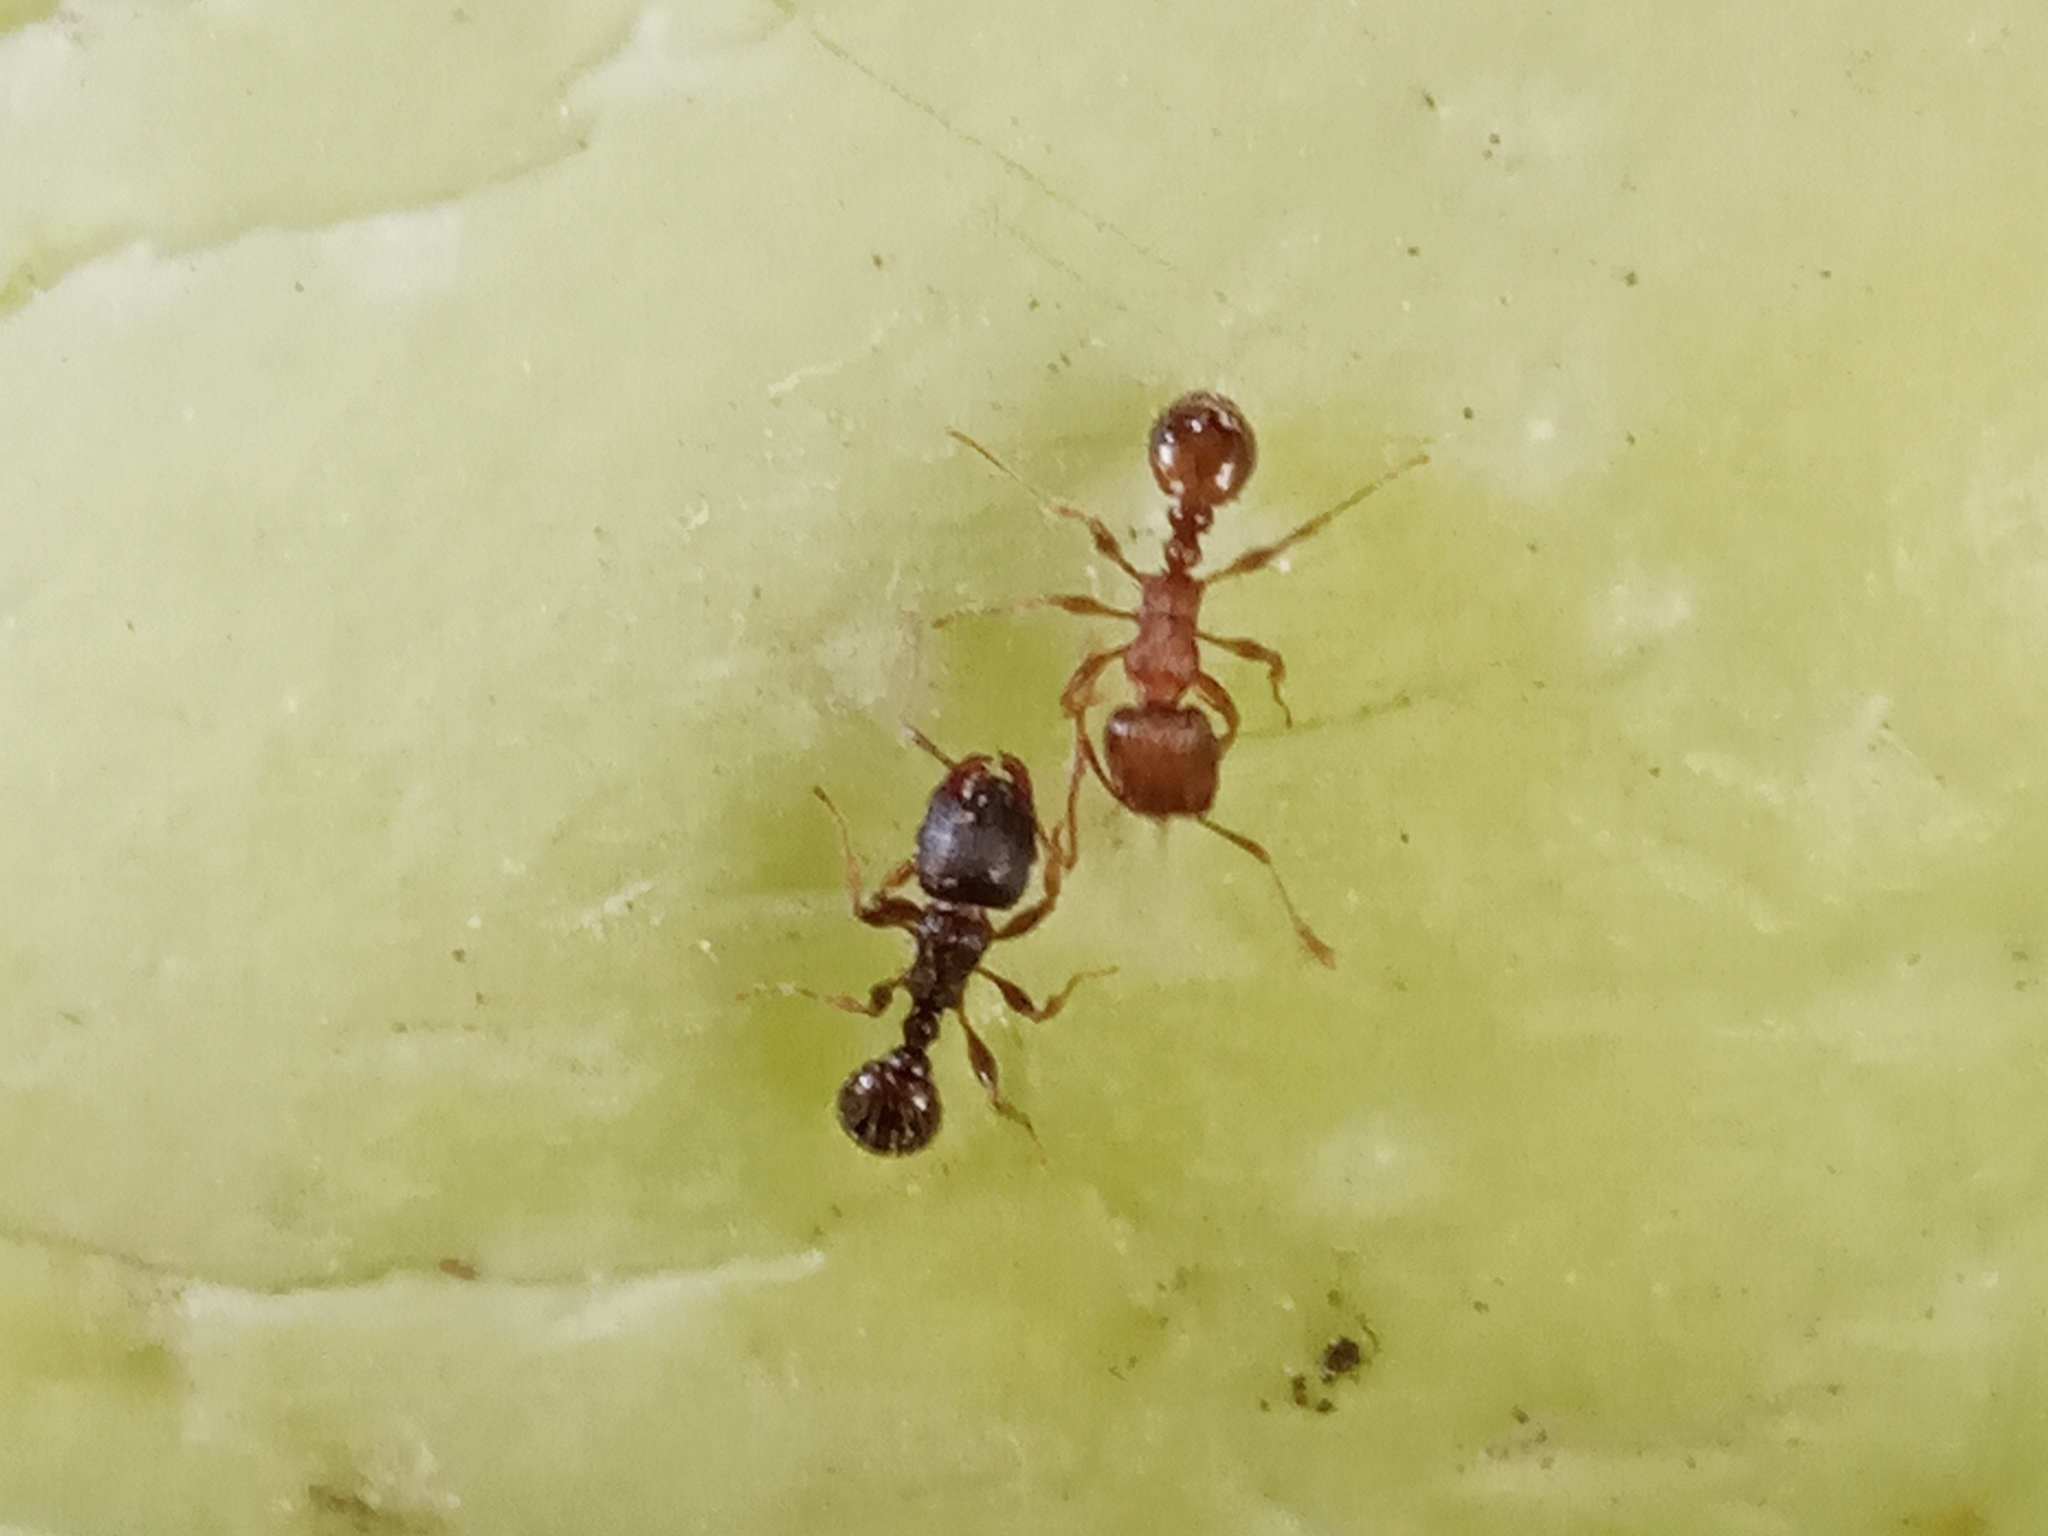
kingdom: Animalia
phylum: Arthropoda
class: Insecta
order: Hymenoptera
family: Formicidae
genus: Tetramorium
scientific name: Tetramorium
